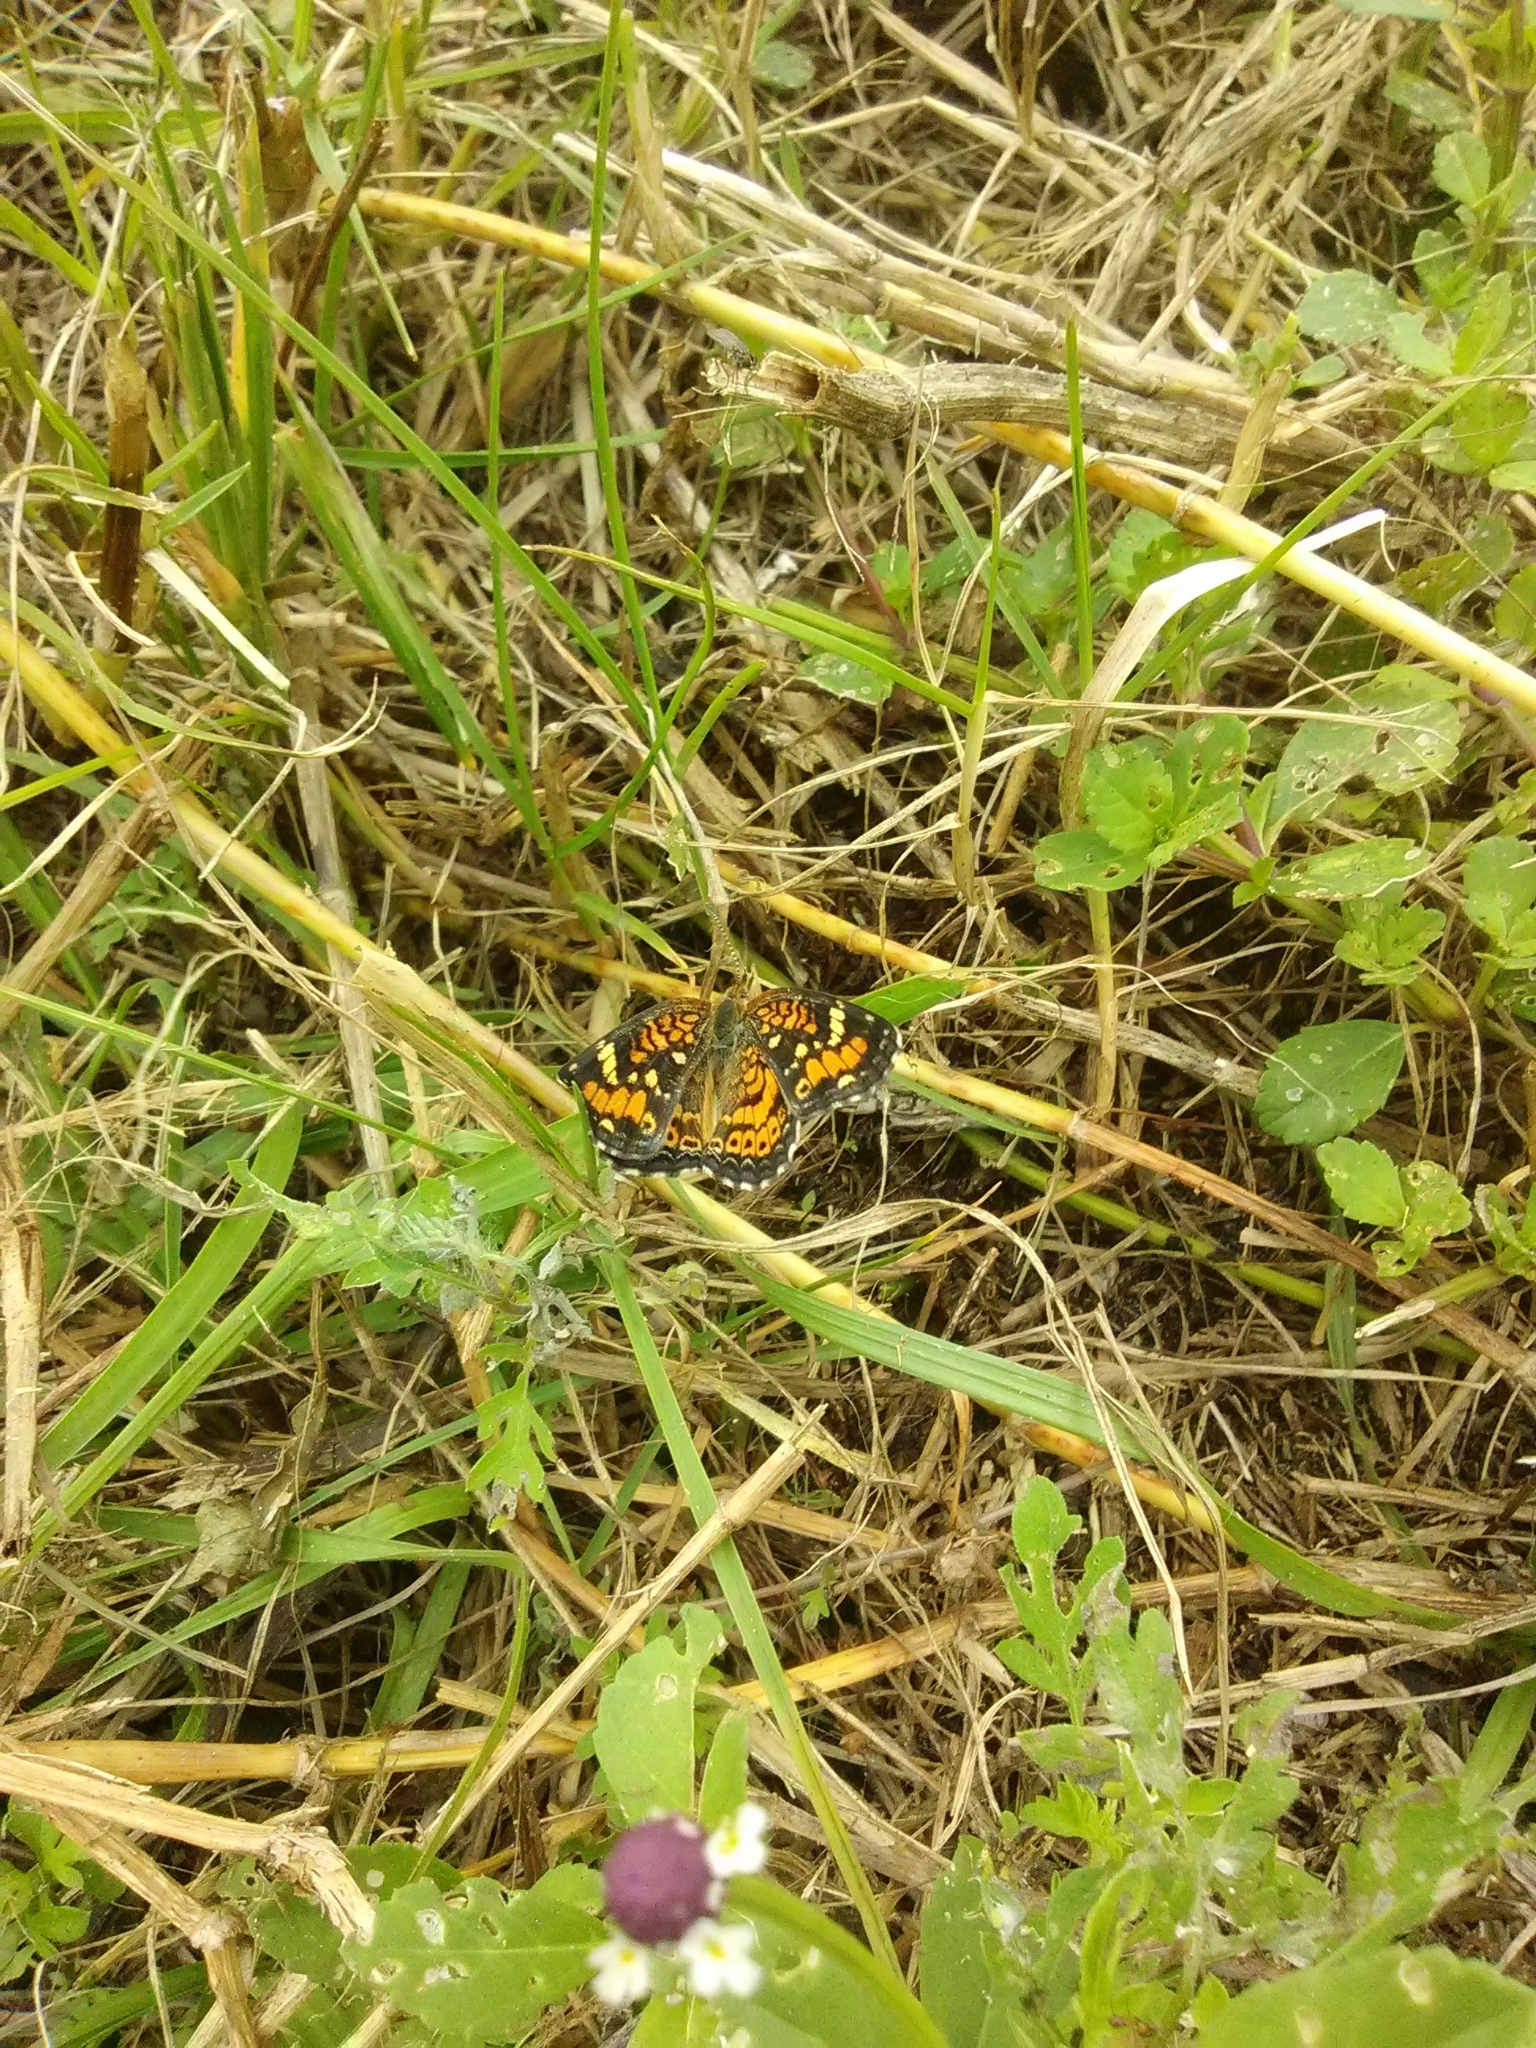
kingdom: Animalia
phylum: Arthropoda
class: Insecta
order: Lepidoptera
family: Nymphalidae
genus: Phyciodes
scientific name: Phyciodes phaon
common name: Phaon crescent
